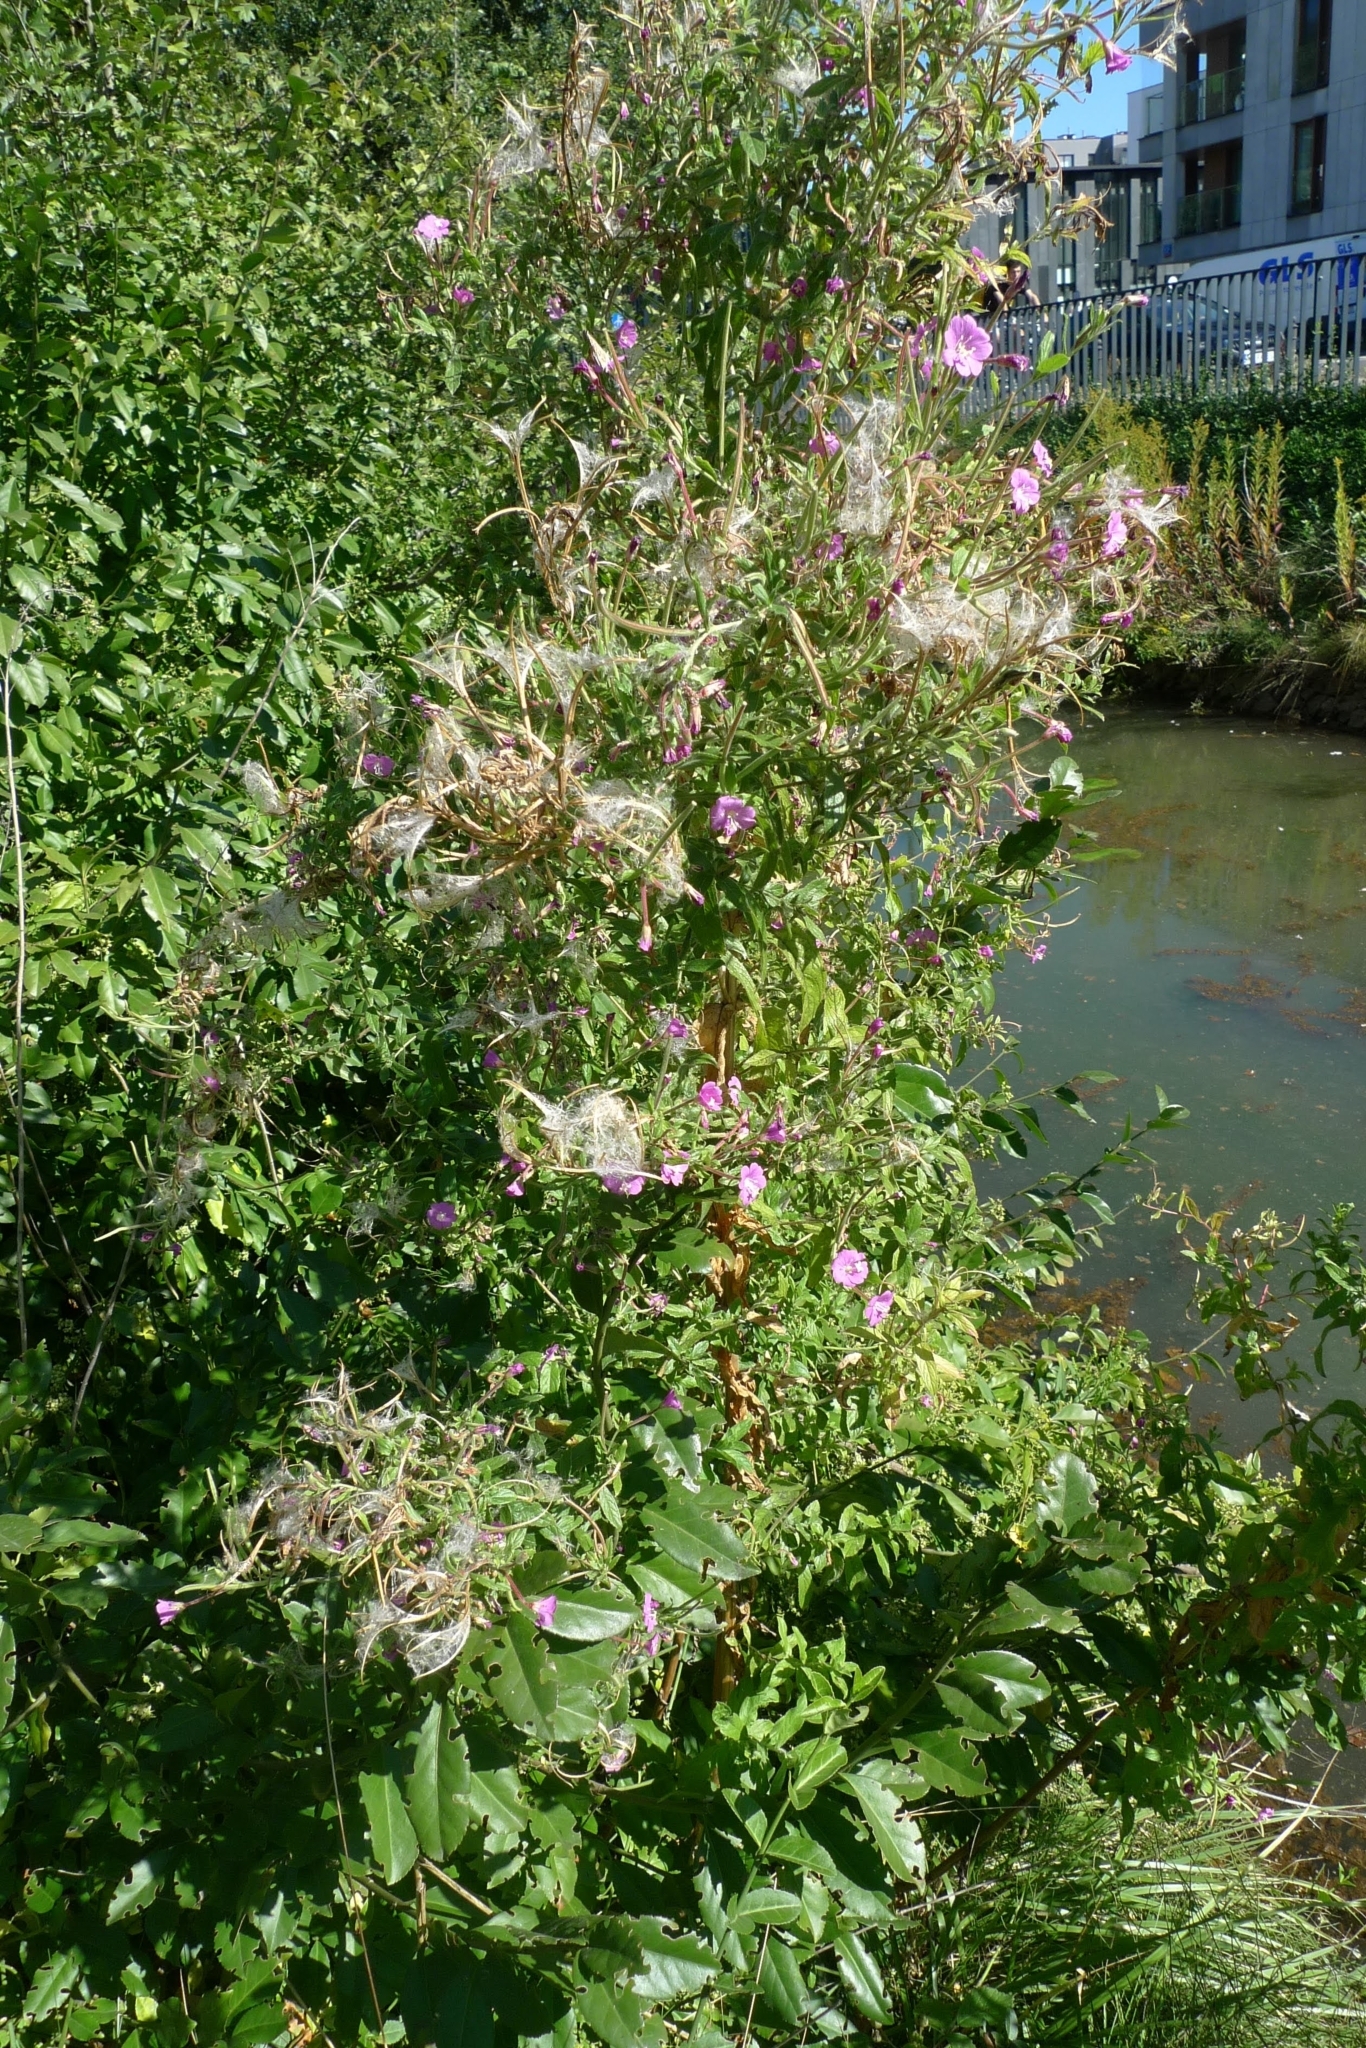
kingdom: Plantae
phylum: Tracheophyta
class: Magnoliopsida
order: Myrtales
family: Onagraceae
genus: Epilobium
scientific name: Epilobium hirsutum
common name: Great willowherb
